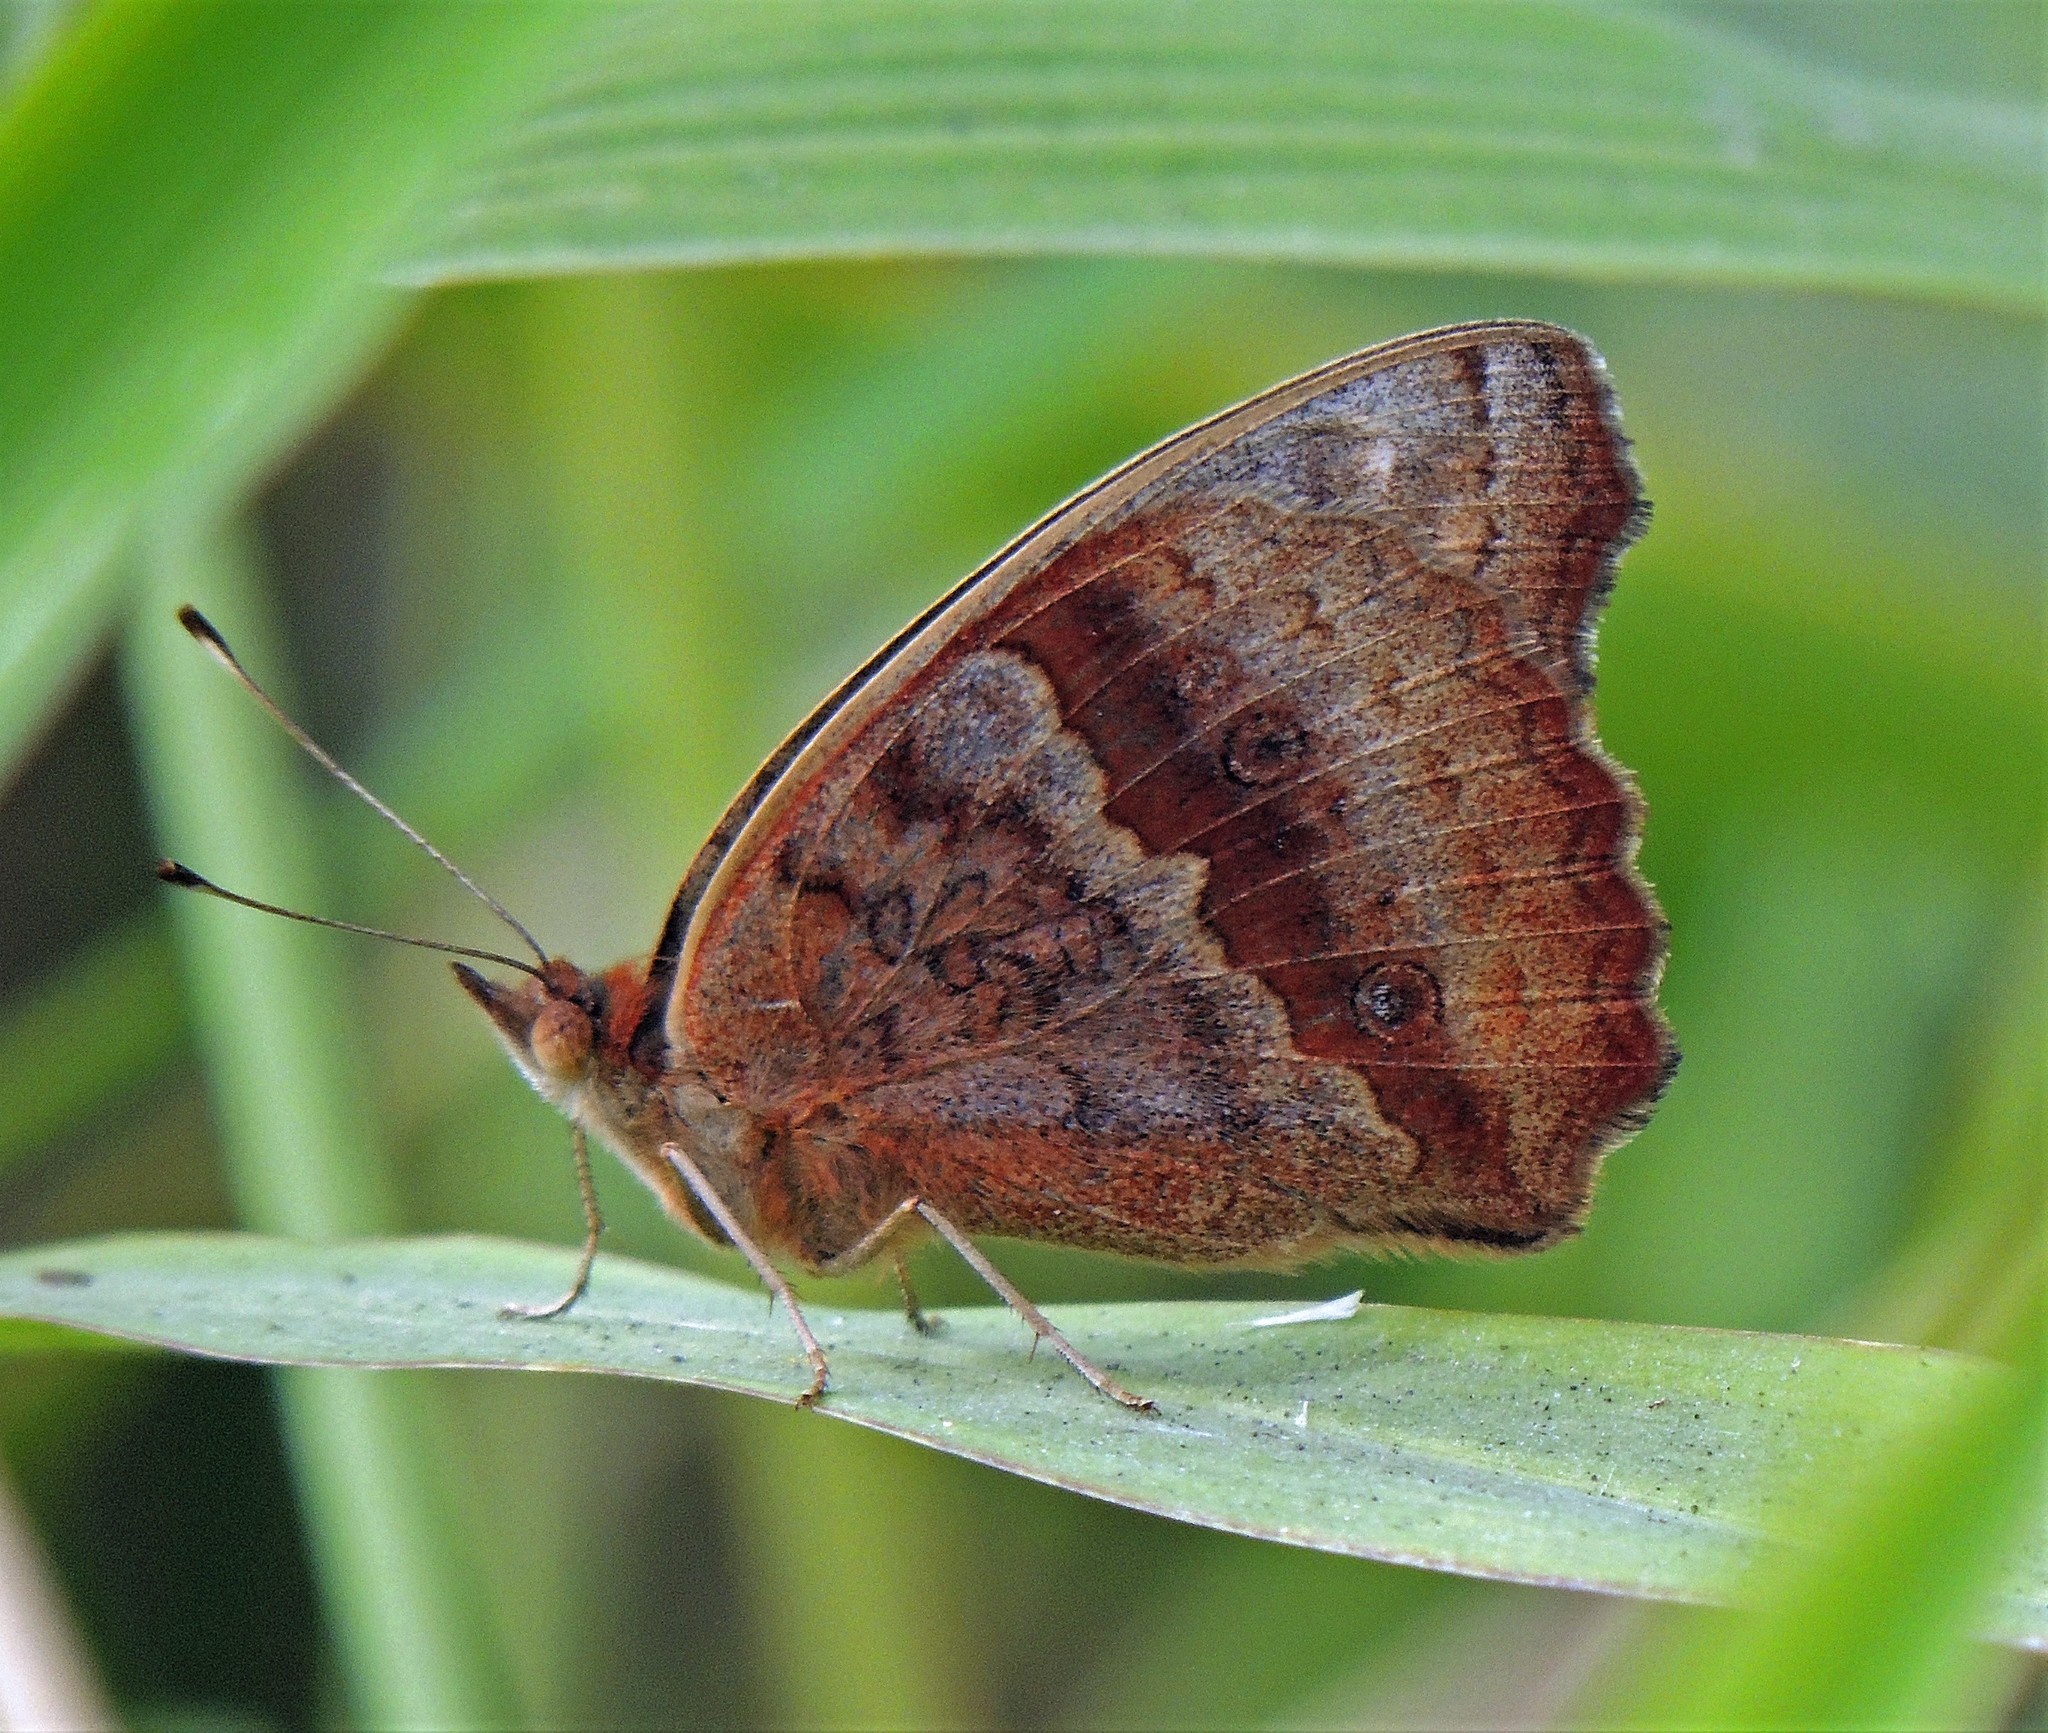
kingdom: Animalia
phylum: Arthropoda
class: Insecta
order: Lepidoptera
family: Nymphalidae
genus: Junonia
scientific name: Junonia lavinia
